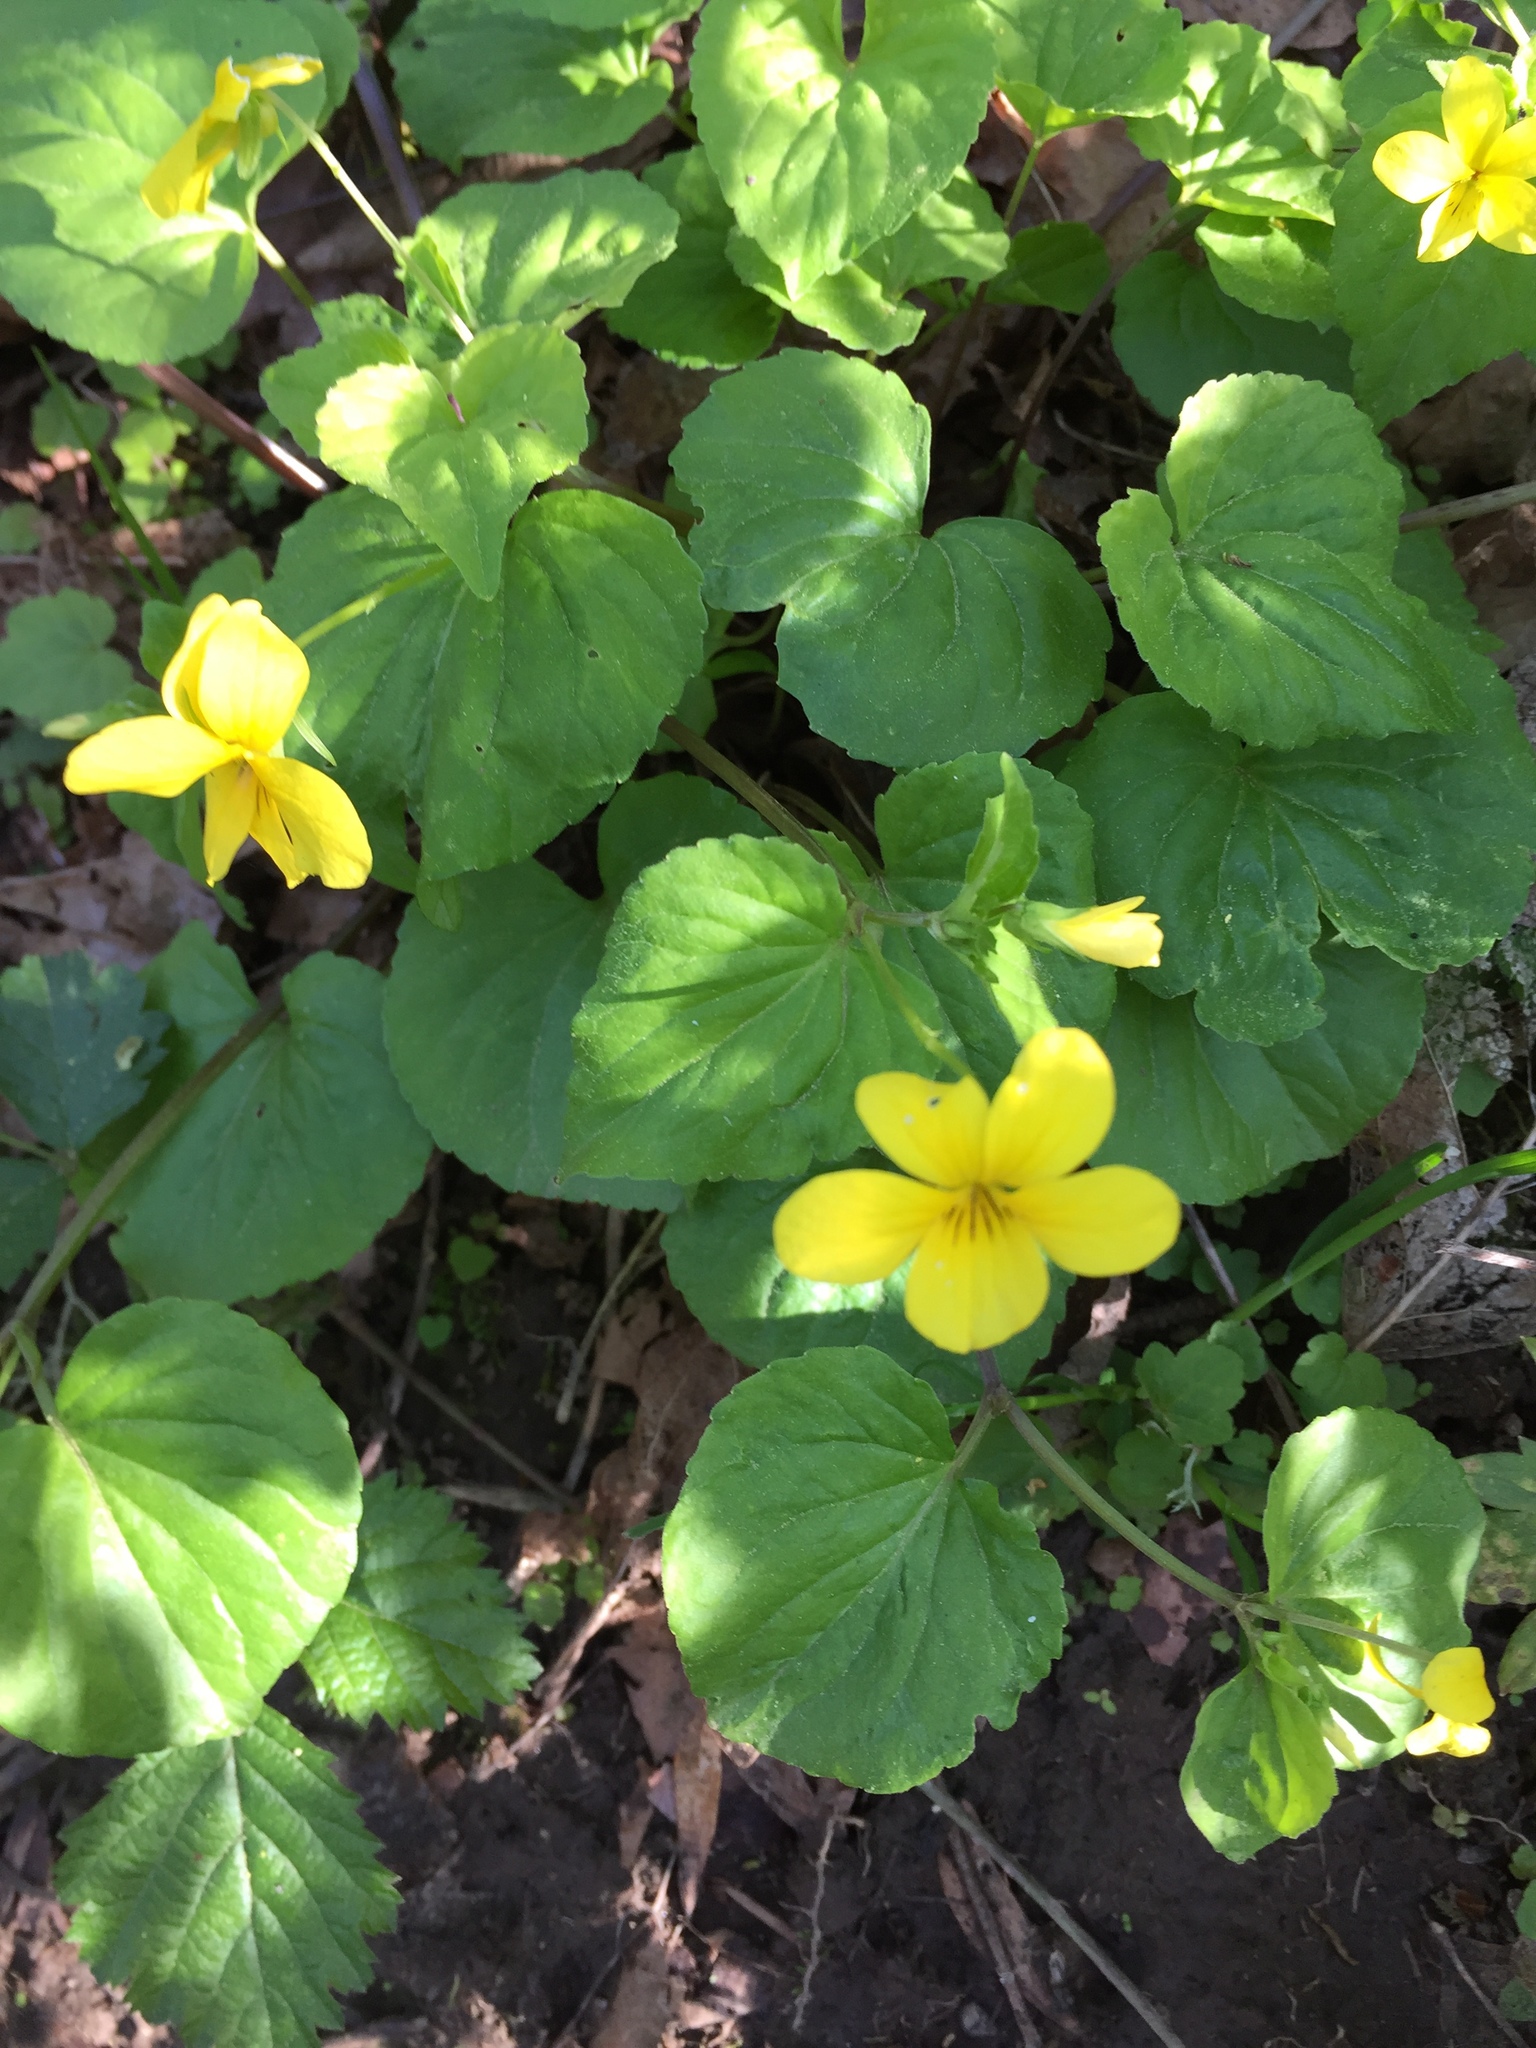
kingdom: Plantae
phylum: Tracheophyta
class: Magnoliopsida
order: Malpighiales
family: Violaceae
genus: Viola
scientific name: Viola glabella
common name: Stream violet
